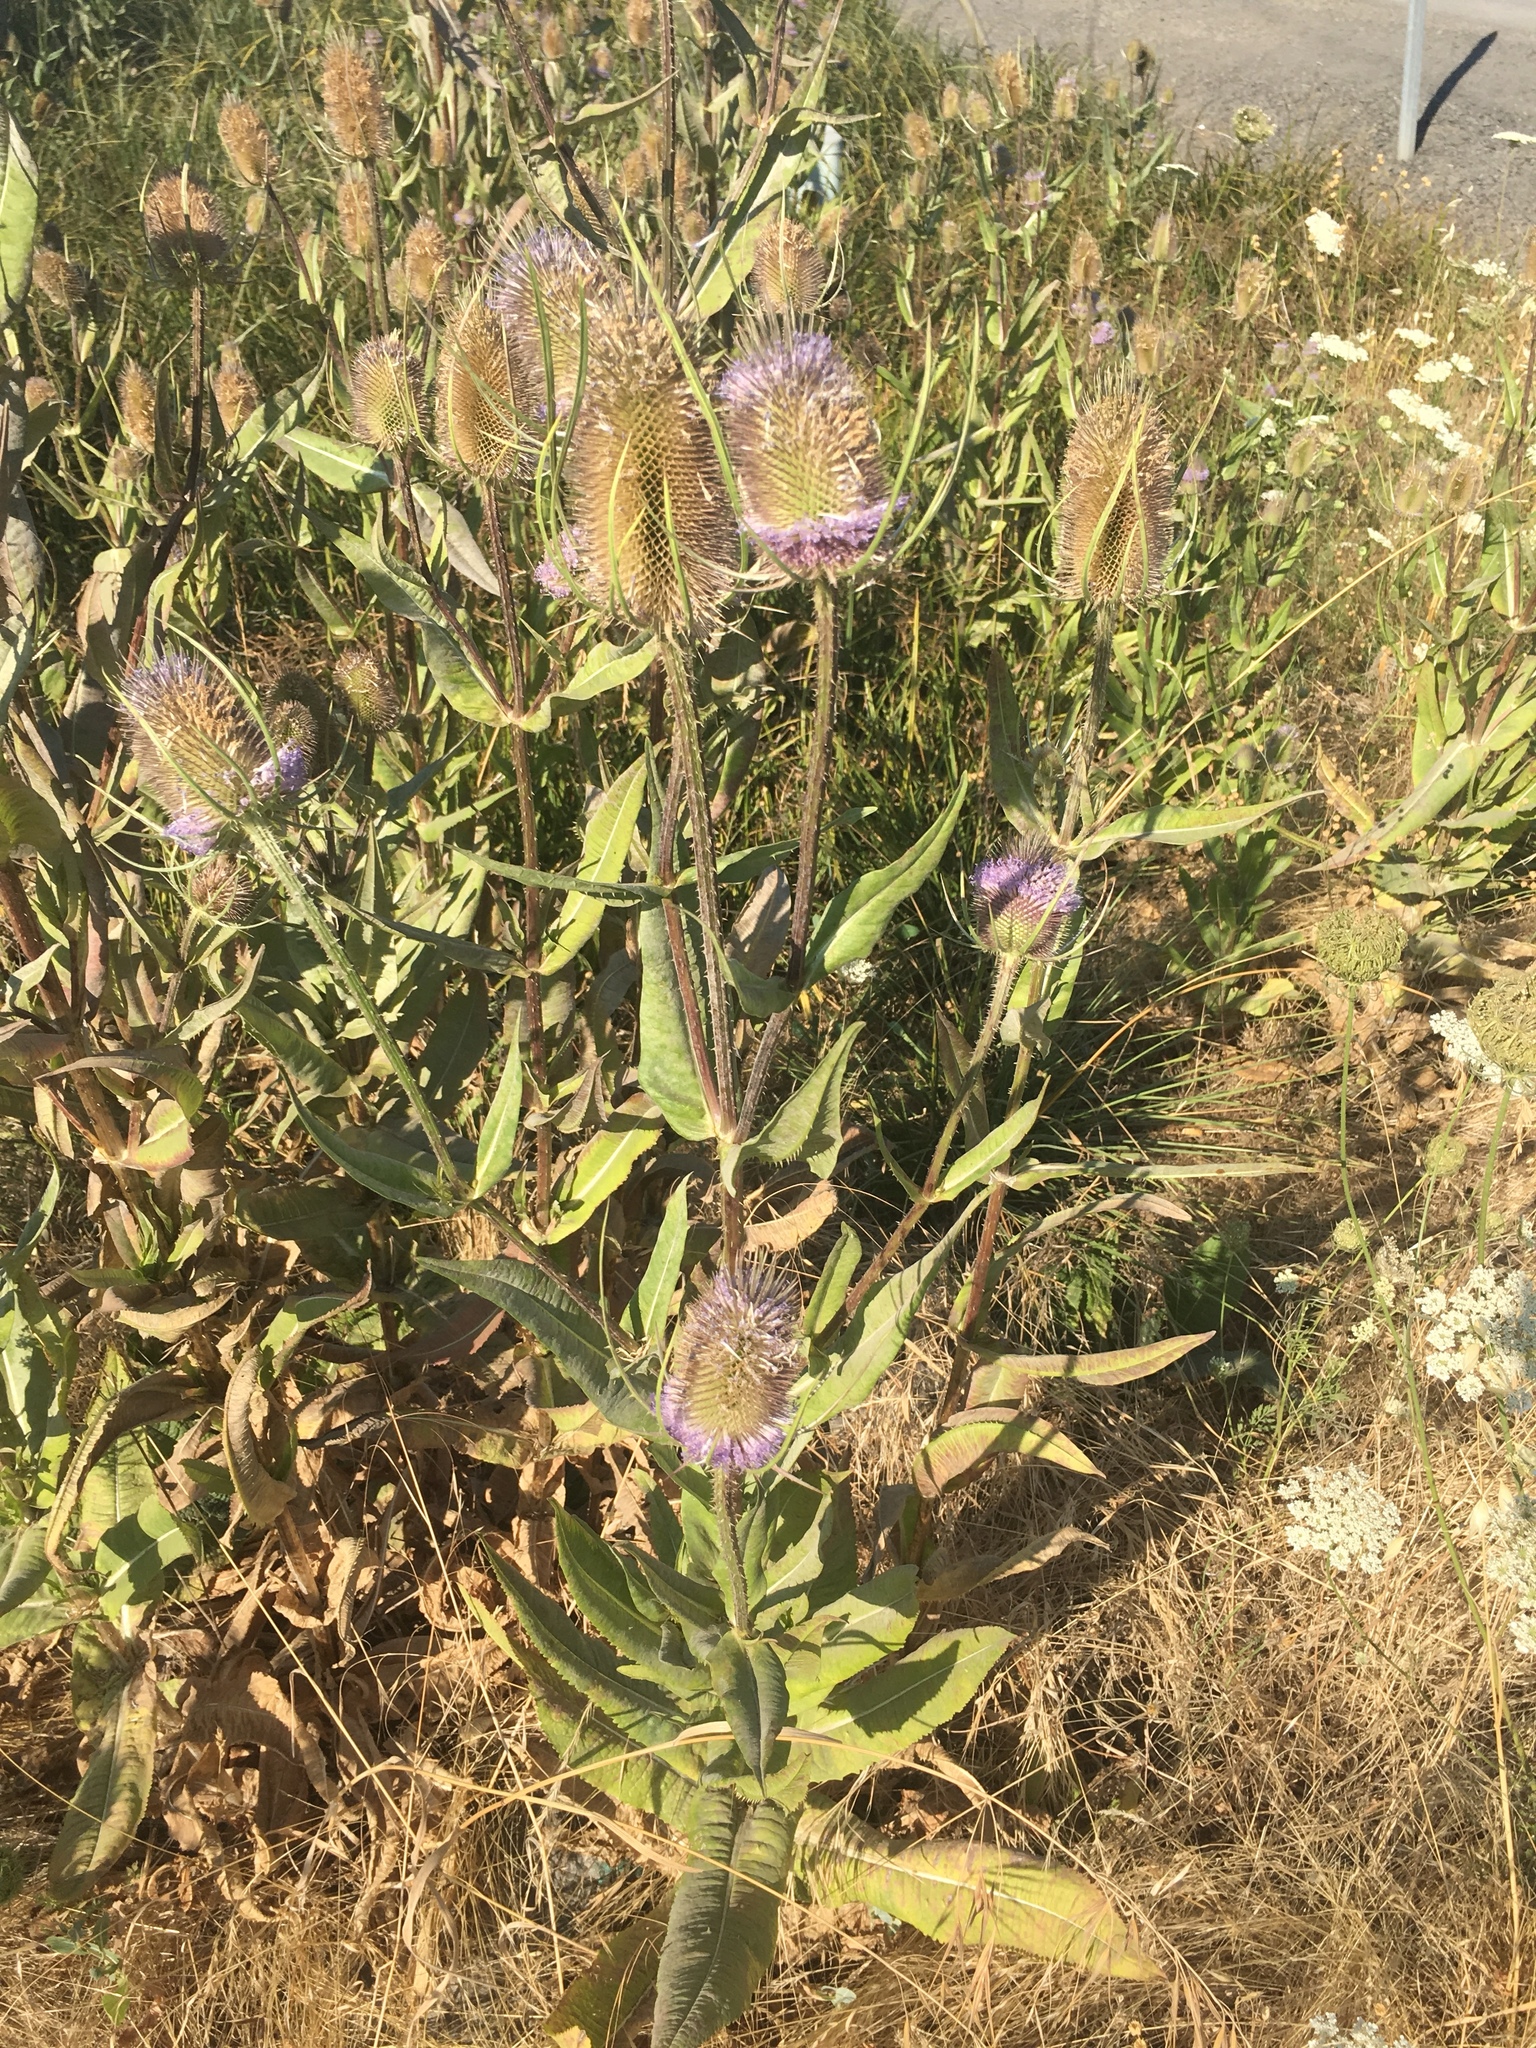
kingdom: Plantae
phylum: Tracheophyta
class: Magnoliopsida
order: Dipsacales
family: Caprifoliaceae
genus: Dipsacus
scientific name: Dipsacus fullonum
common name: Teasel
